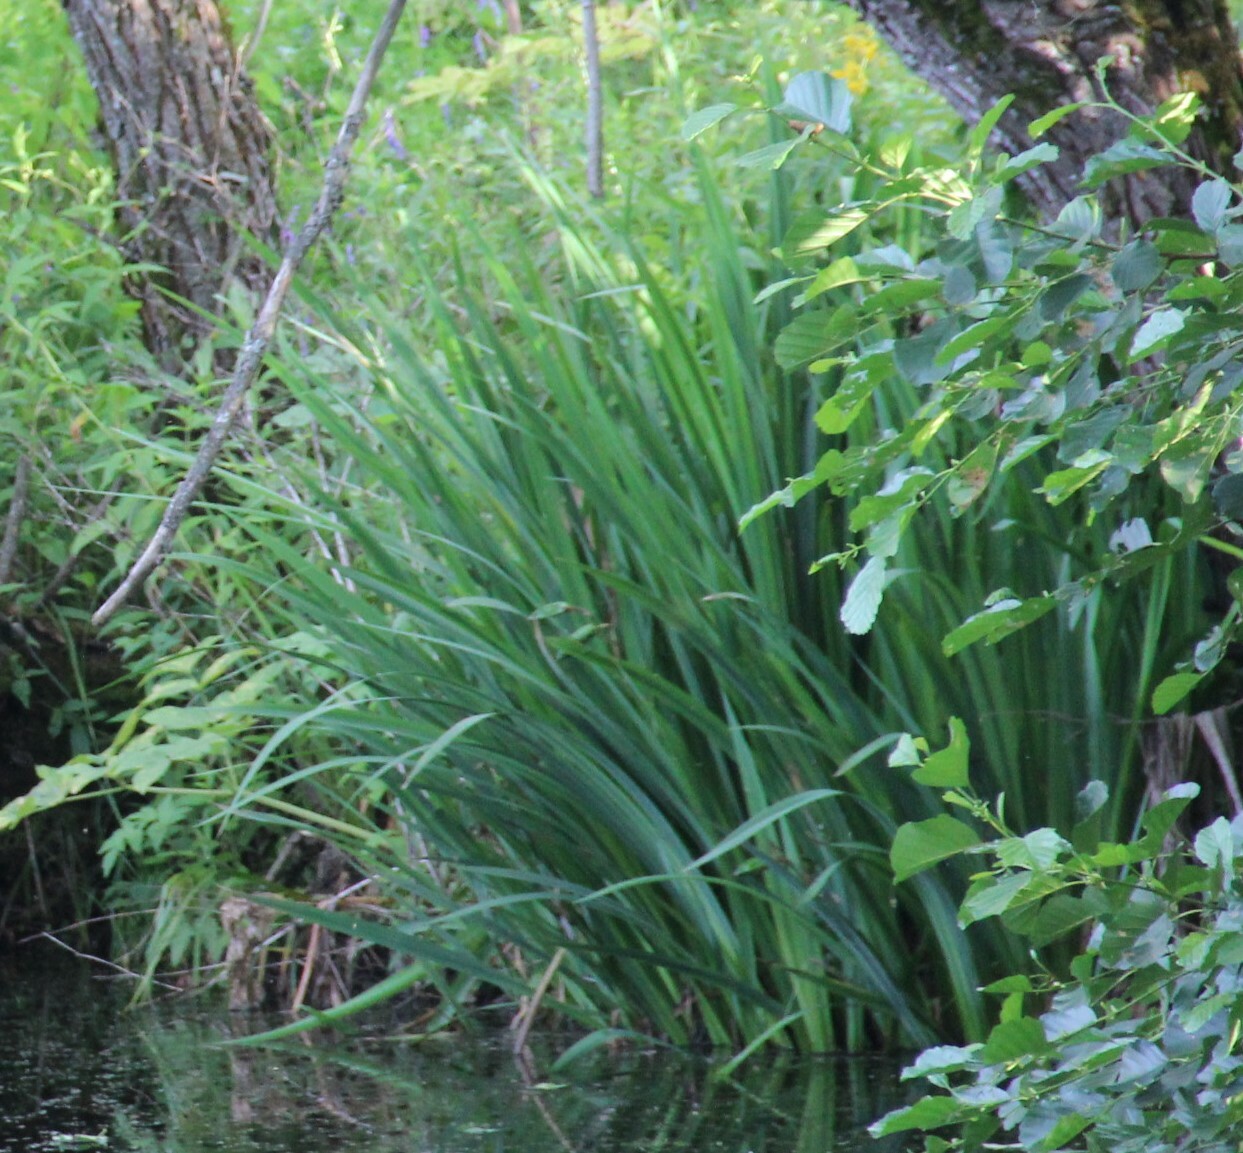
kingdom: Plantae
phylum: Tracheophyta
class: Liliopsida
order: Asparagales
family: Iridaceae
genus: Iris
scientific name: Iris pseudacorus
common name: Yellow flag
